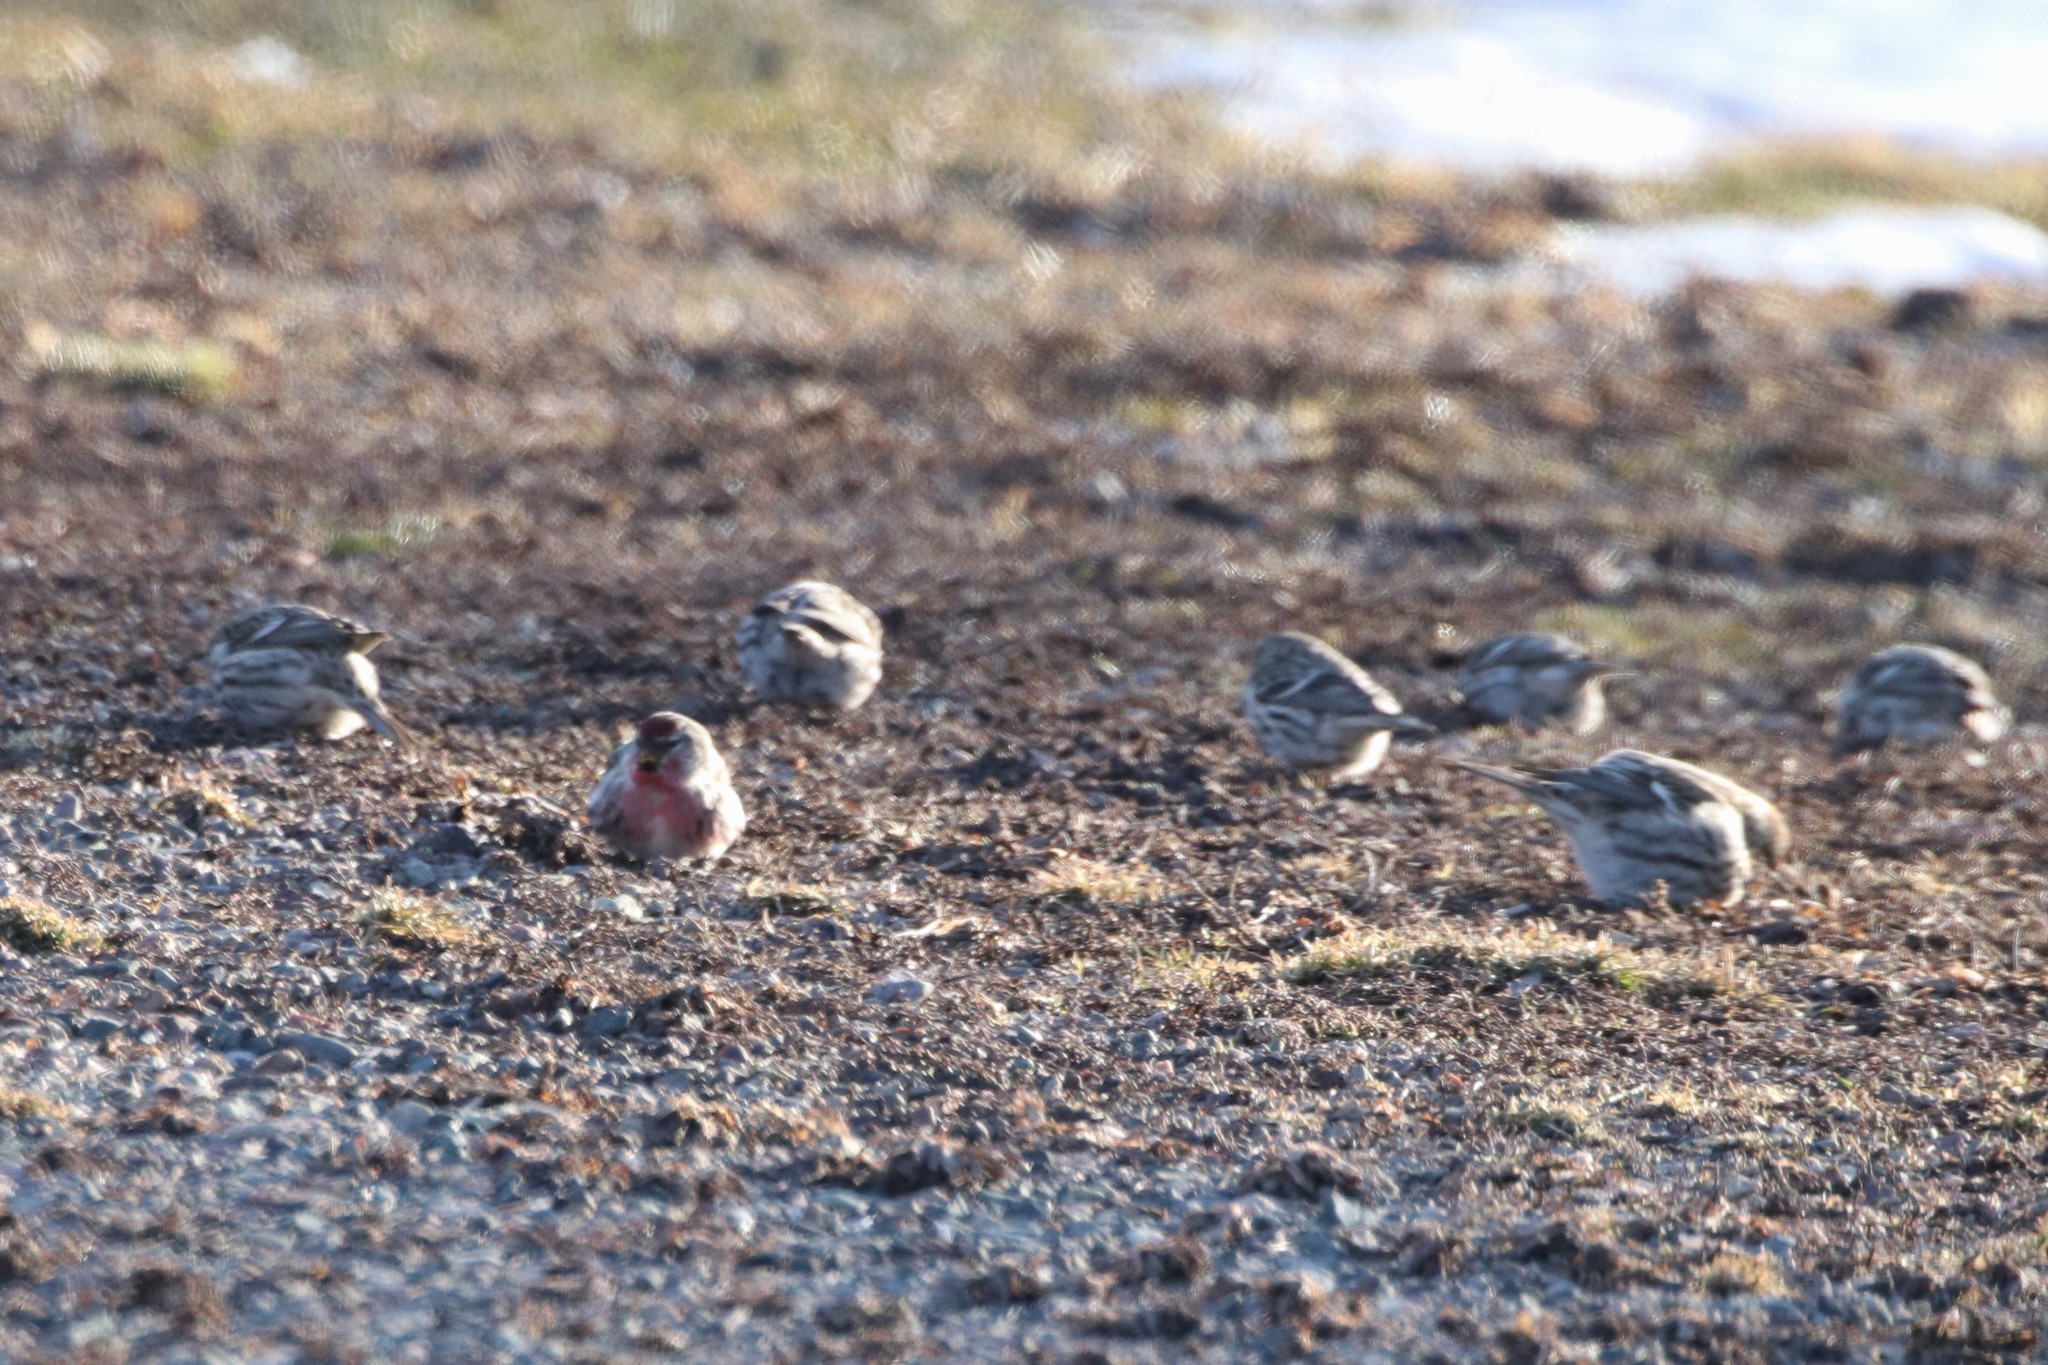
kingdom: Animalia
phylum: Chordata
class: Aves
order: Passeriformes
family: Fringillidae
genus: Acanthis
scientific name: Acanthis flammea
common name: Common redpoll
